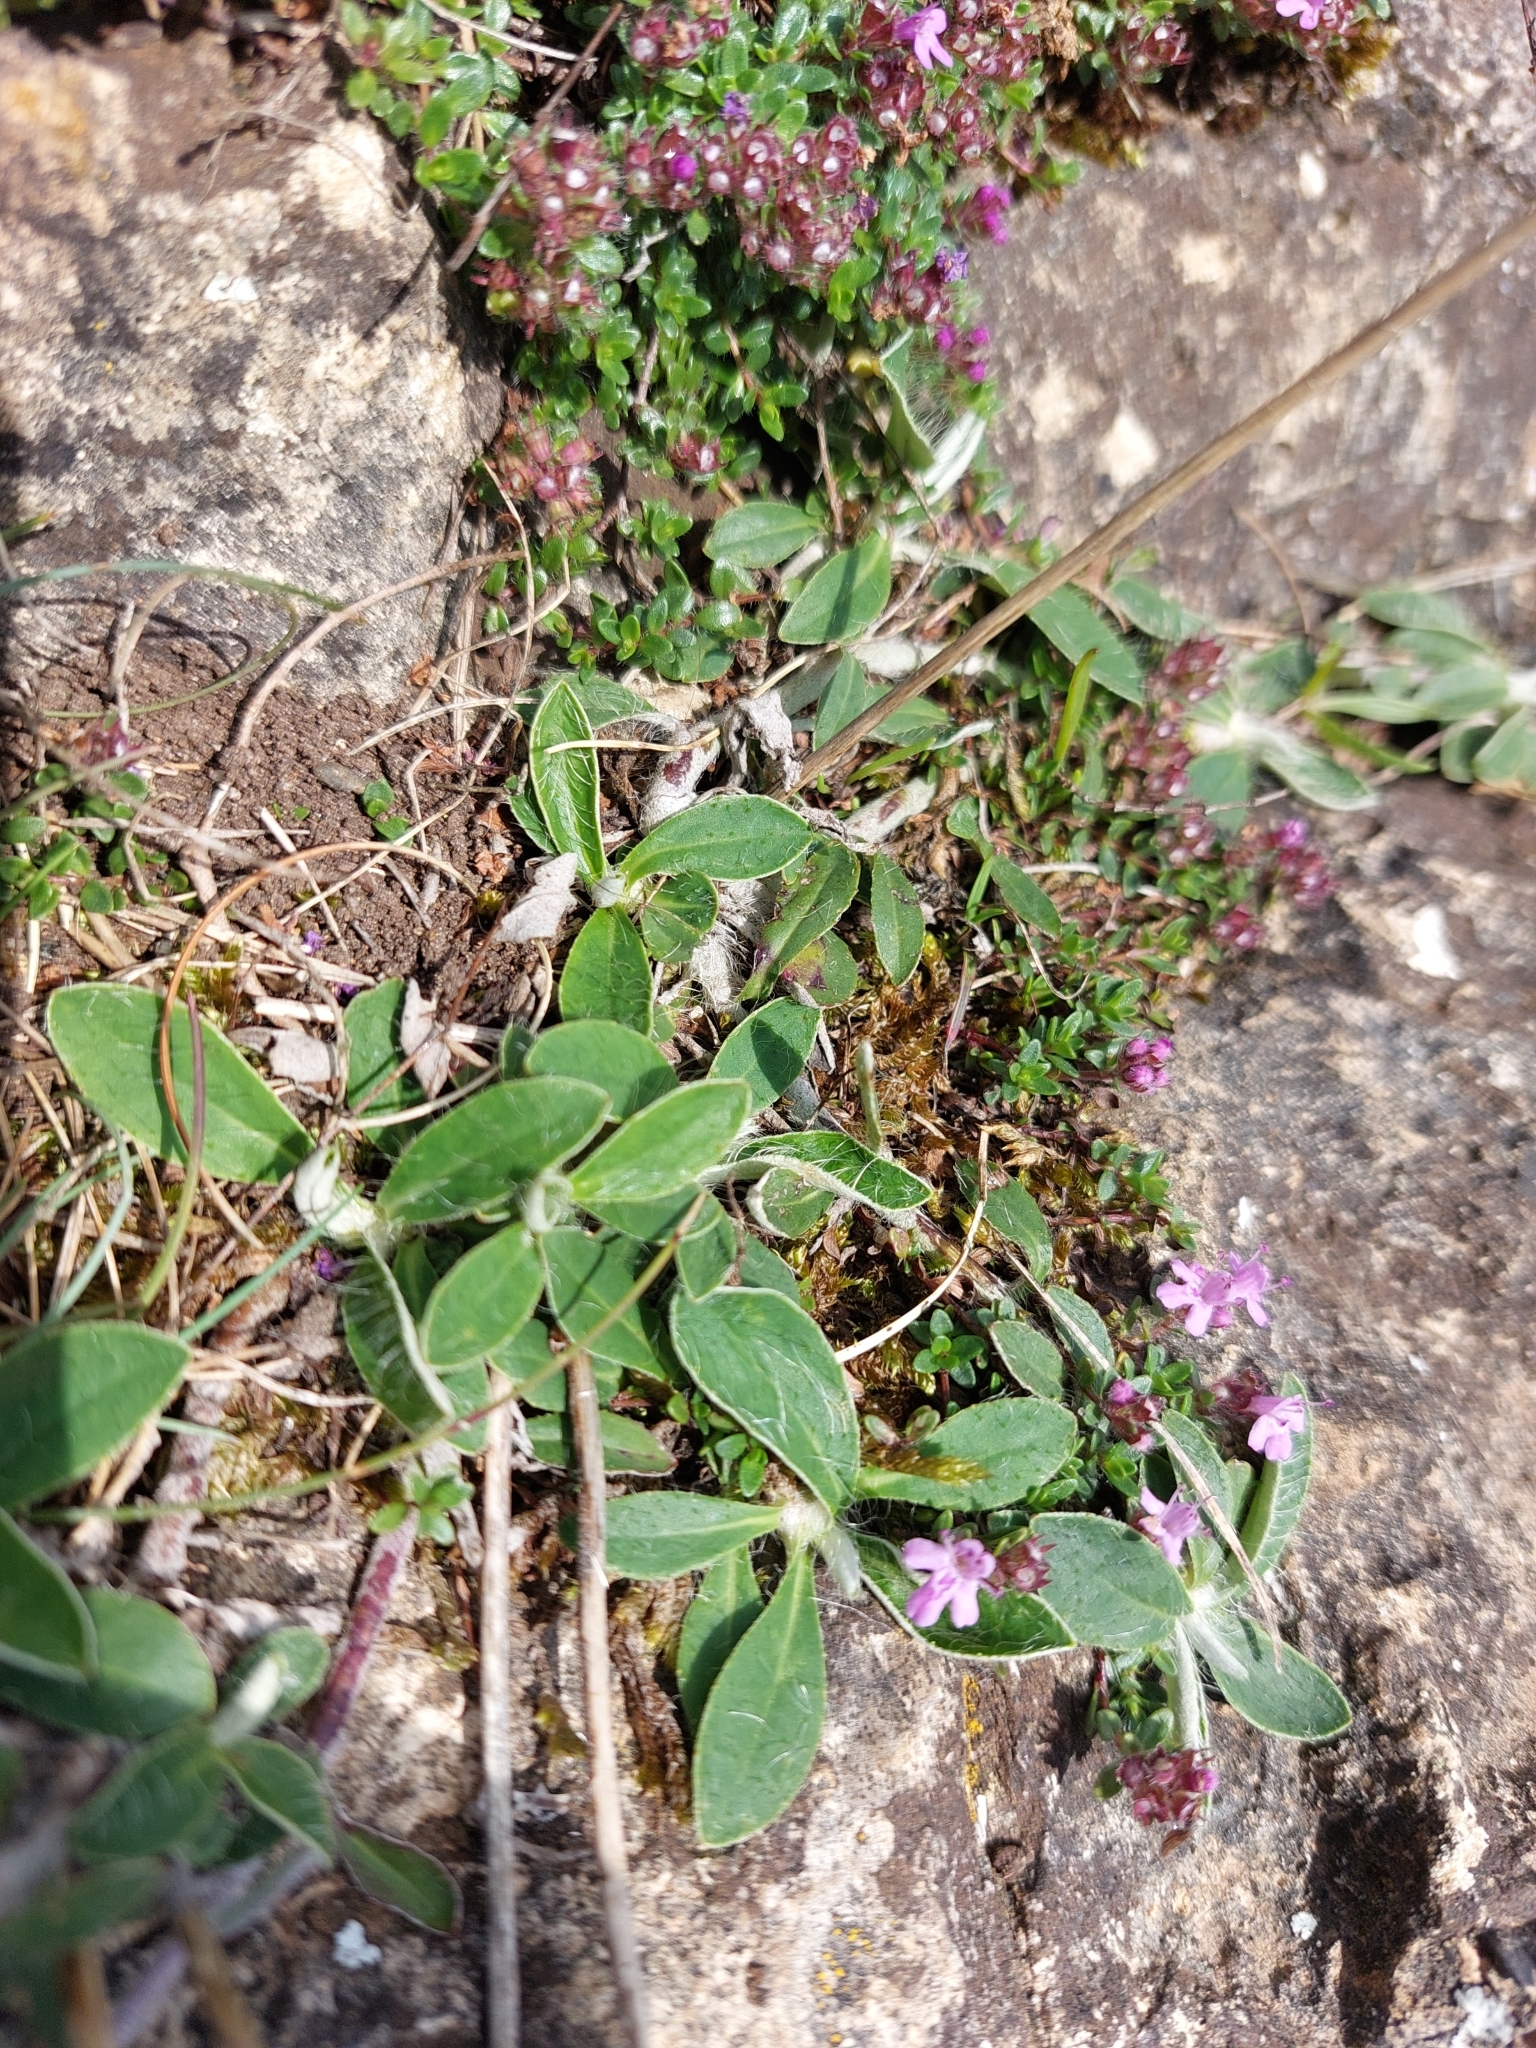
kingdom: Plantae
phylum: Tracheophyta
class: Magnoliopsida
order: Asterales
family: Asteraceae
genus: Pilosella
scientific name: Pilosella officinarum
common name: Mouse-ear hawkweed
